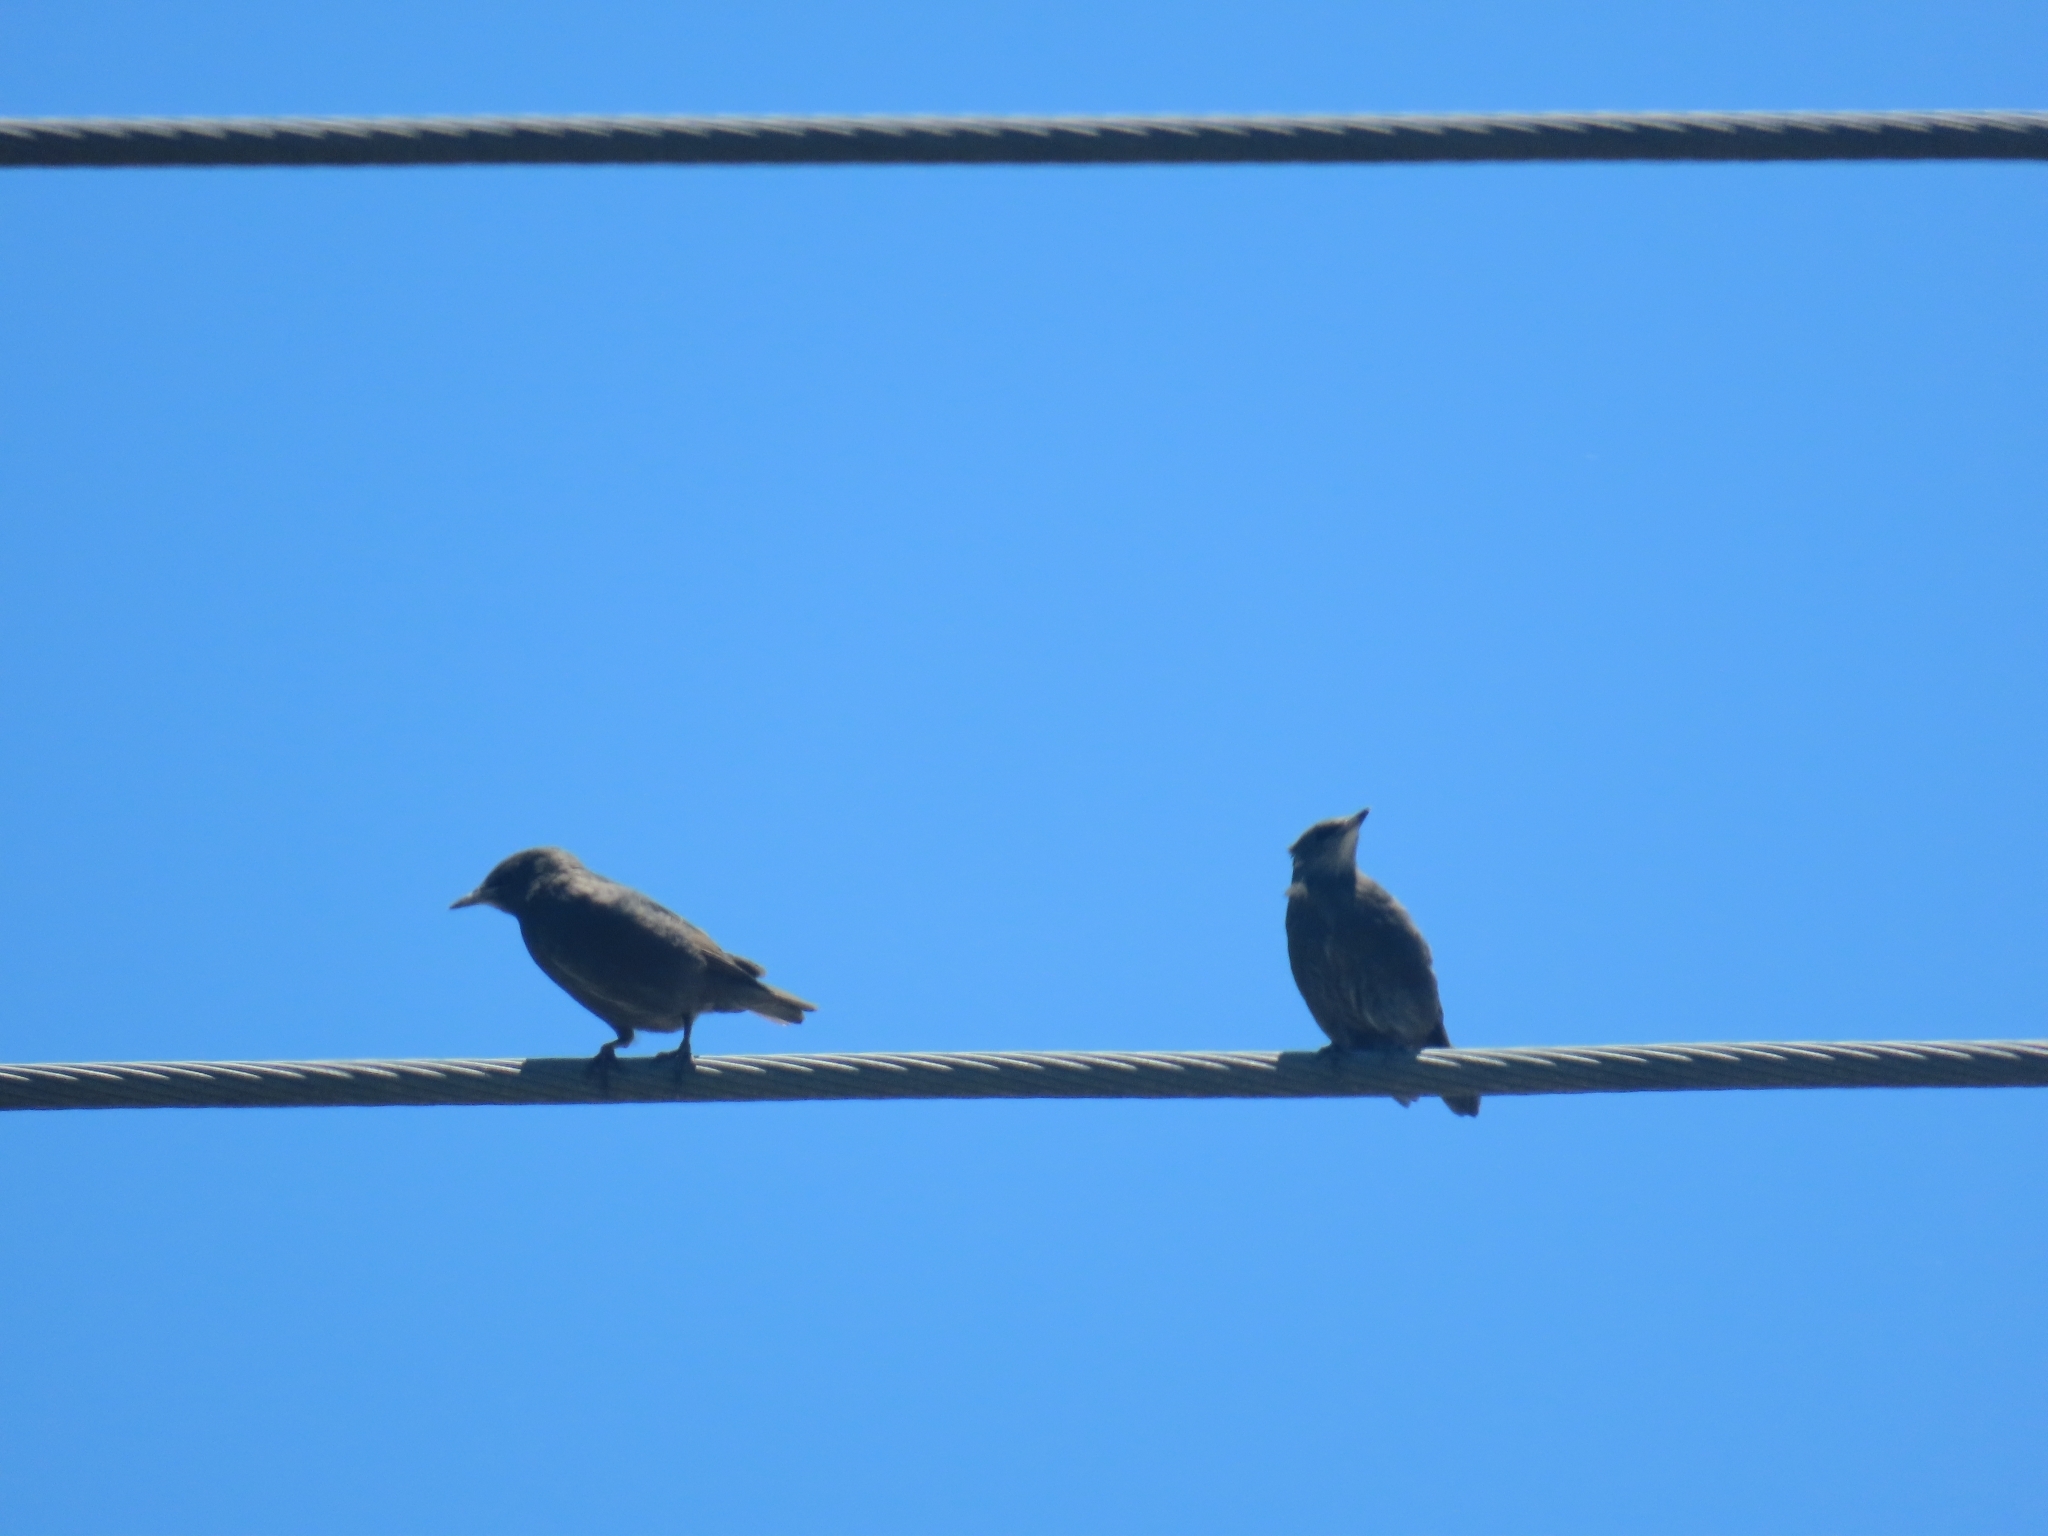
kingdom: Animalia
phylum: Chordata
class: Aves
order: Passeriformes
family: Sturnidae
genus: Sturnus
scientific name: Sturnus vulgaris
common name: Common starling
